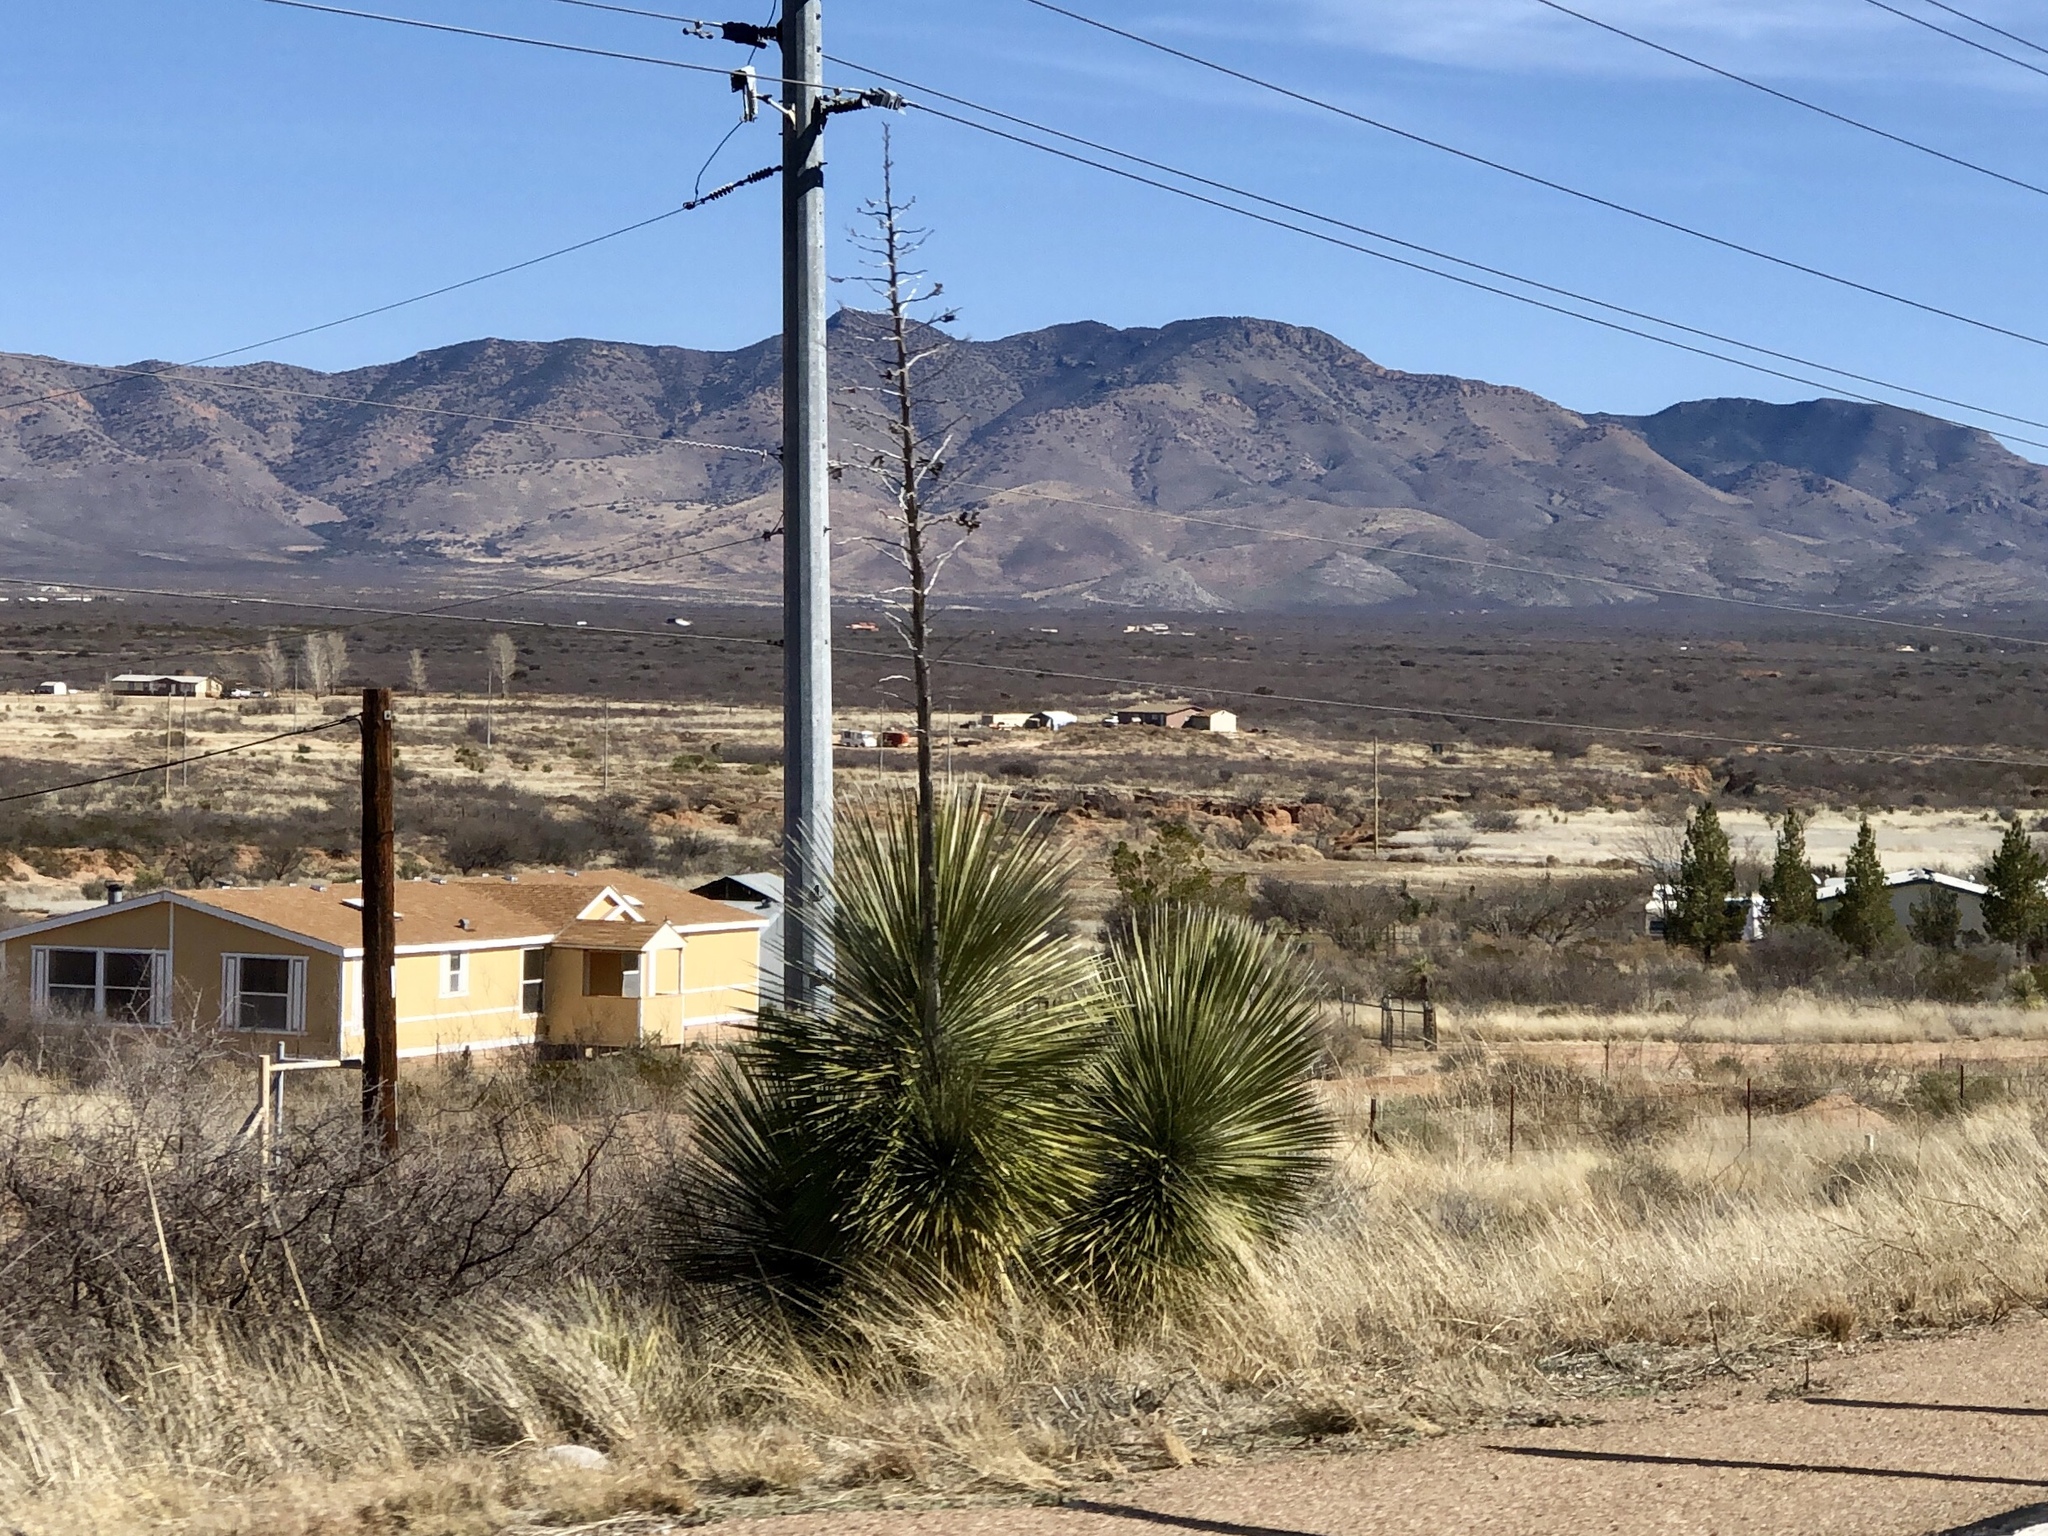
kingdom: Plantae
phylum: Tracheophyta
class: Liliopsida
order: Asparagales
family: Asparagaceae
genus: Yucca
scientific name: Yucca elata
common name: Palmella
